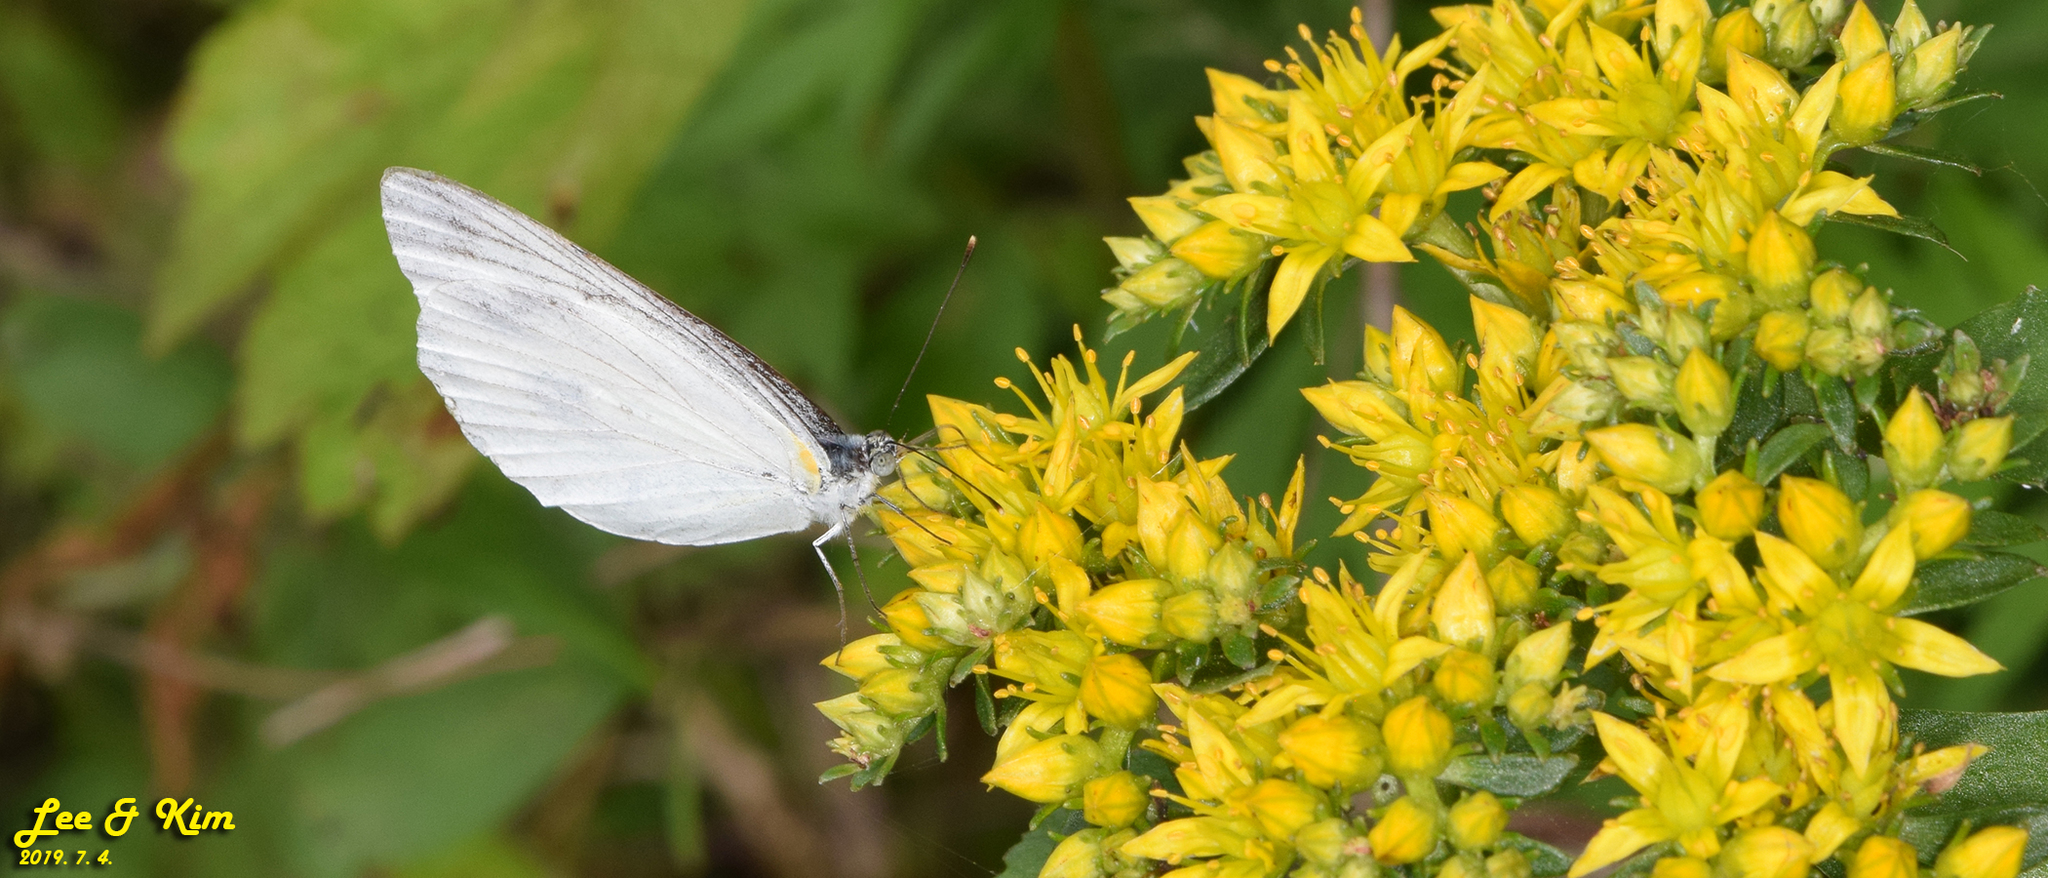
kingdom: Animalia
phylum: Arthropoda
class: Insecta
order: Lepidoptera
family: Pieridae
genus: Pieris
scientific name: Pieris melete
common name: Asian green-veined white
